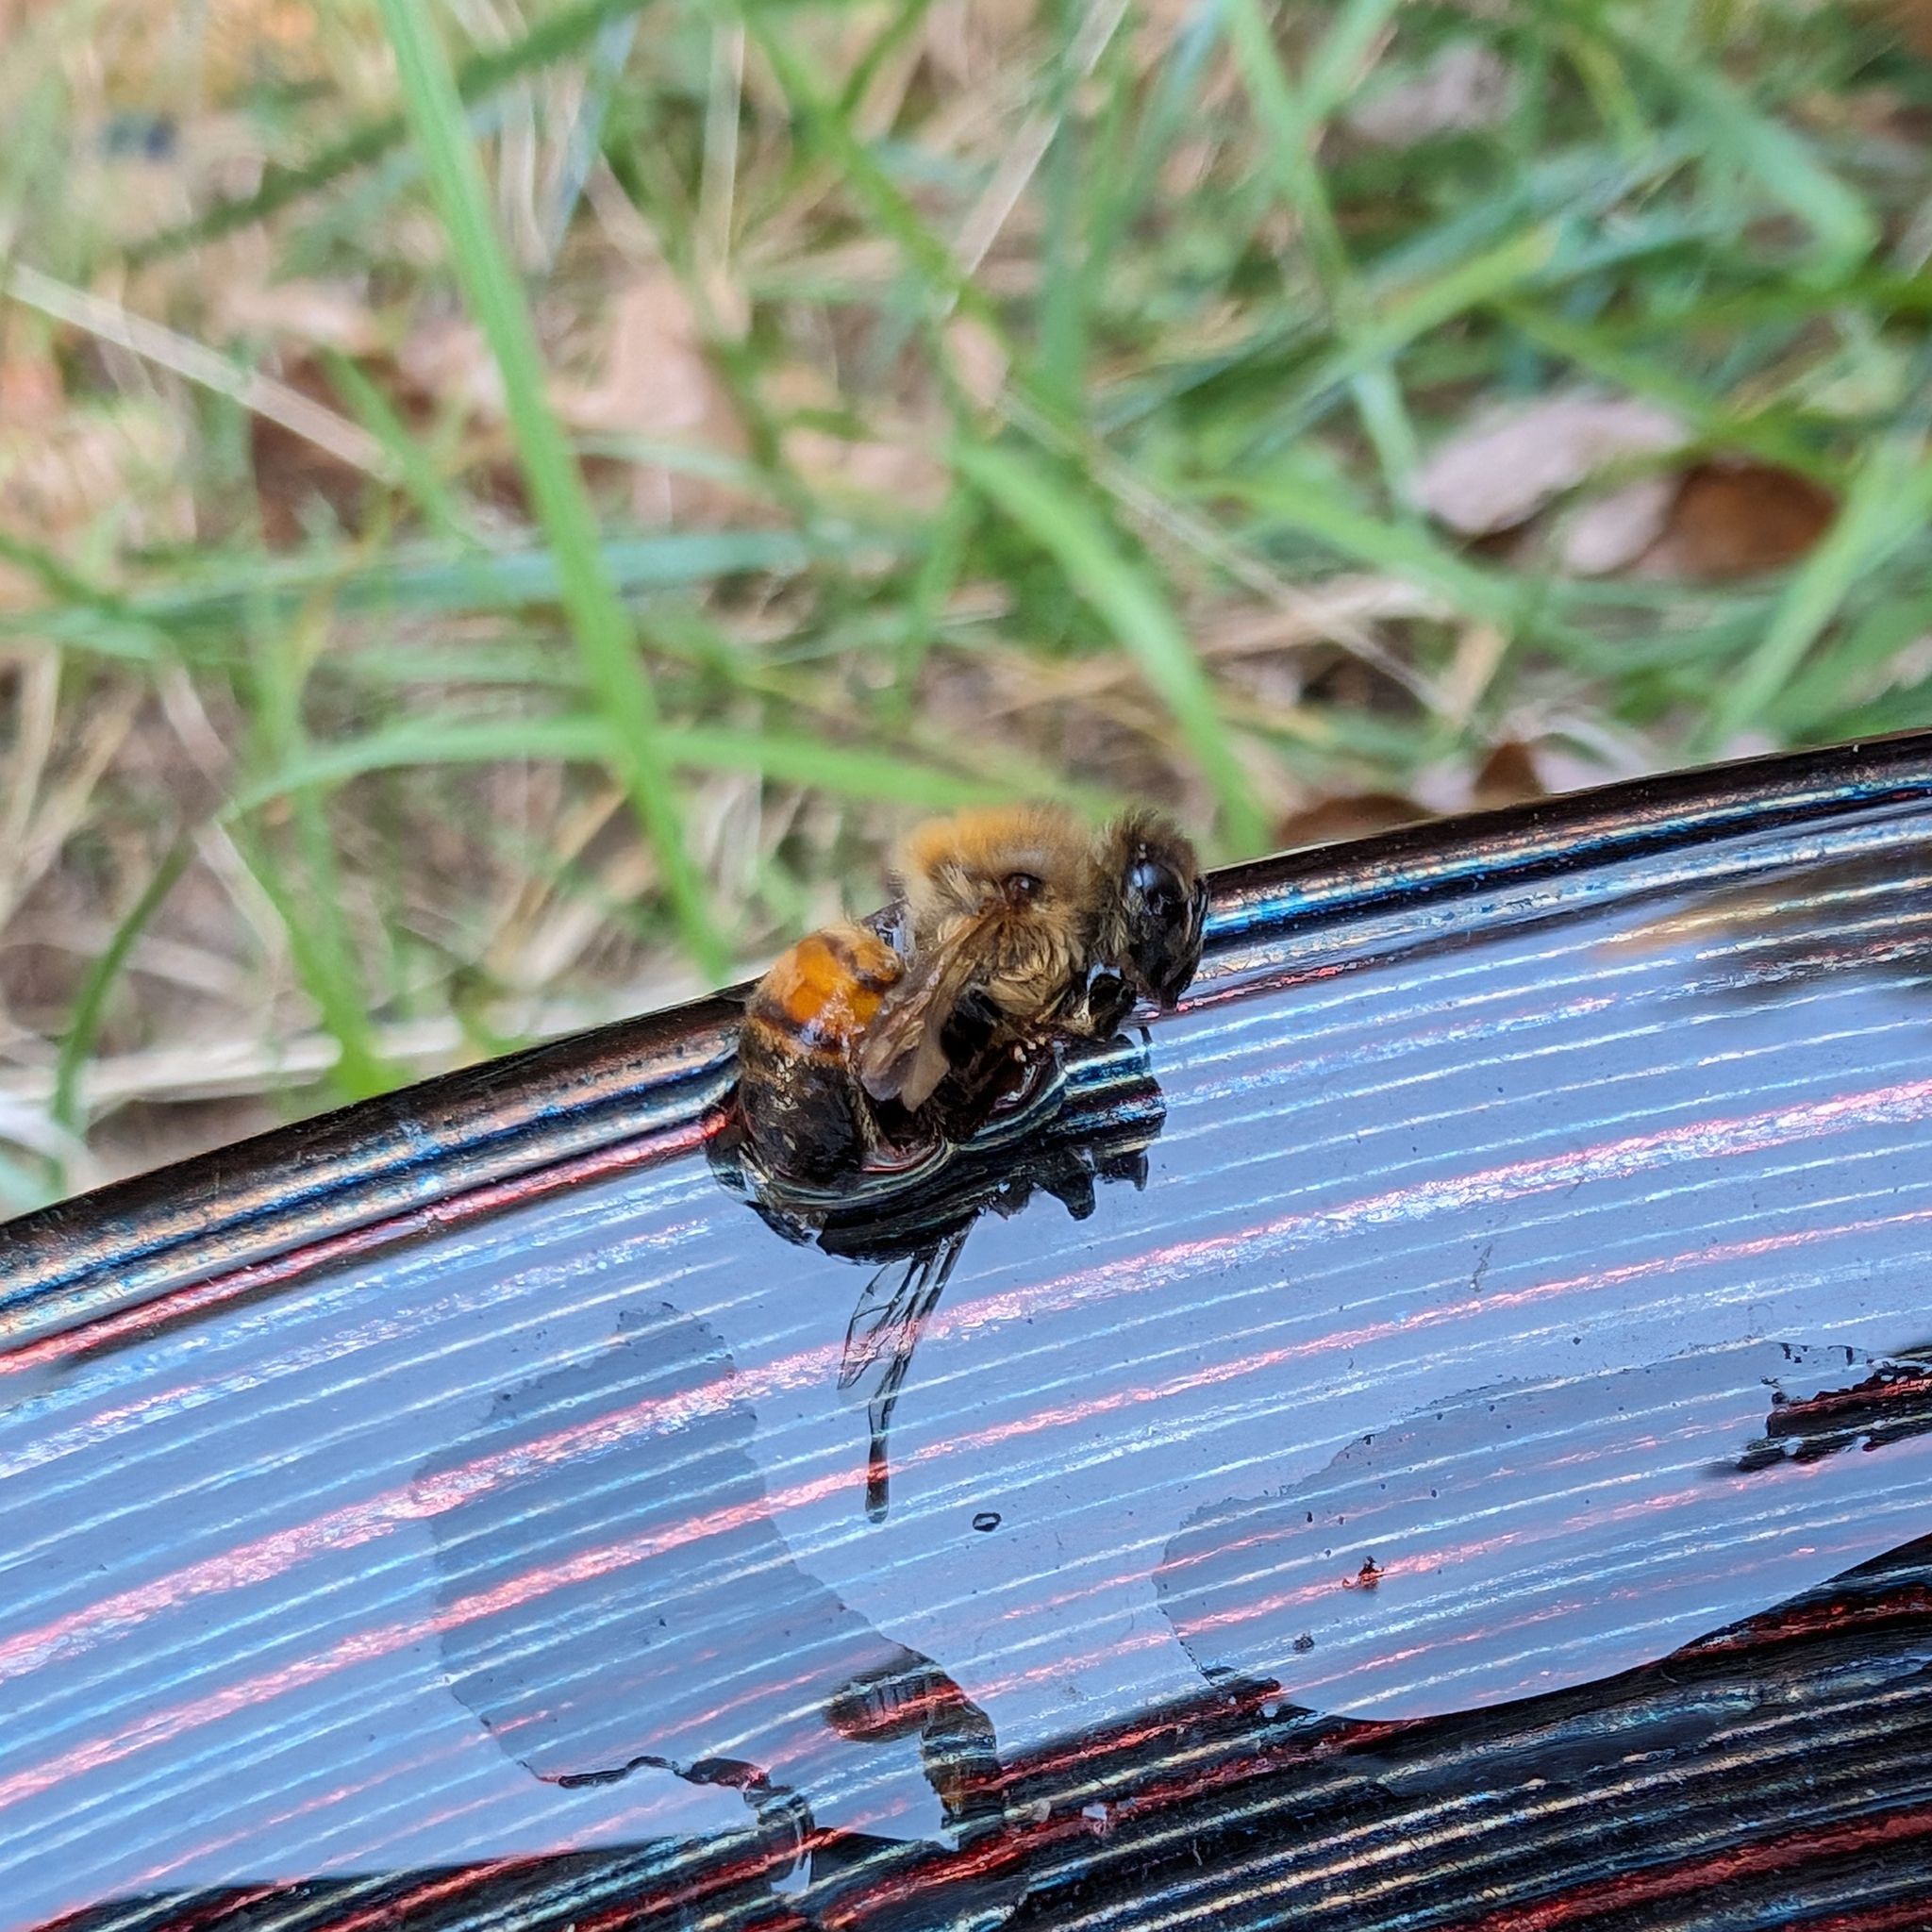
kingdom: Animalia
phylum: Arthropoda
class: Insecta
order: Hymenoptera
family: Apidae
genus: Apis
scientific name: Apis mellifera
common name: Honey bee
